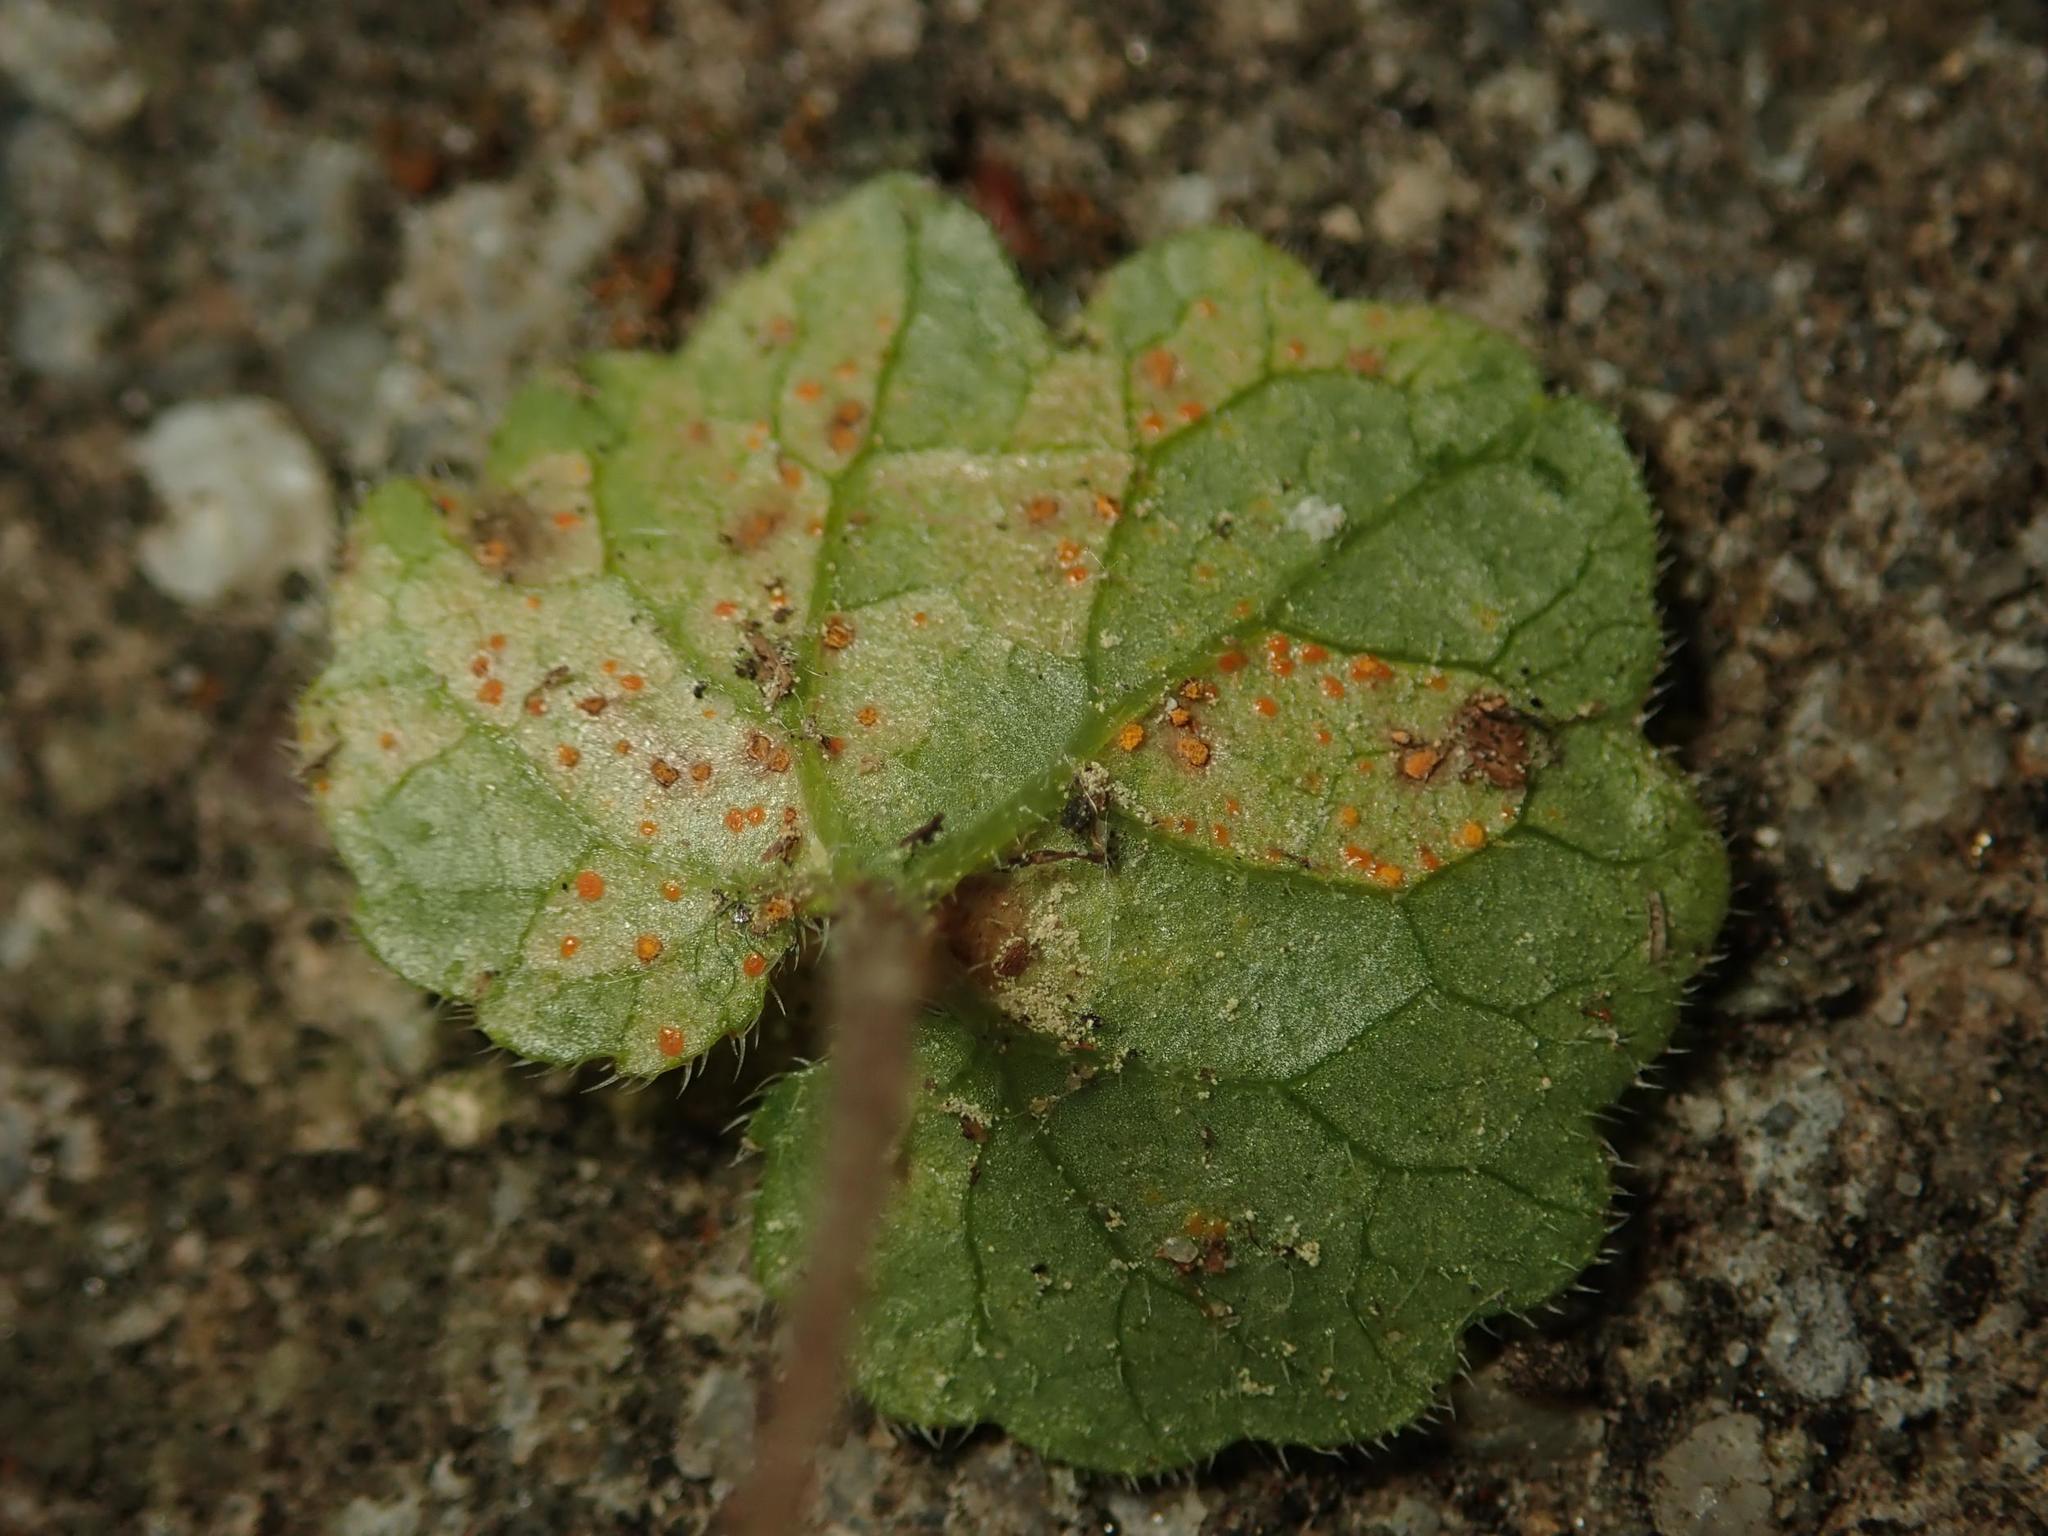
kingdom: Fungi
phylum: Basidiomycota
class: Pucciniomycetes
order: Pucciniales
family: Pucciniaceae
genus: Puccinia
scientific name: Puccinia glechomatis
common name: Ground ivy rust
